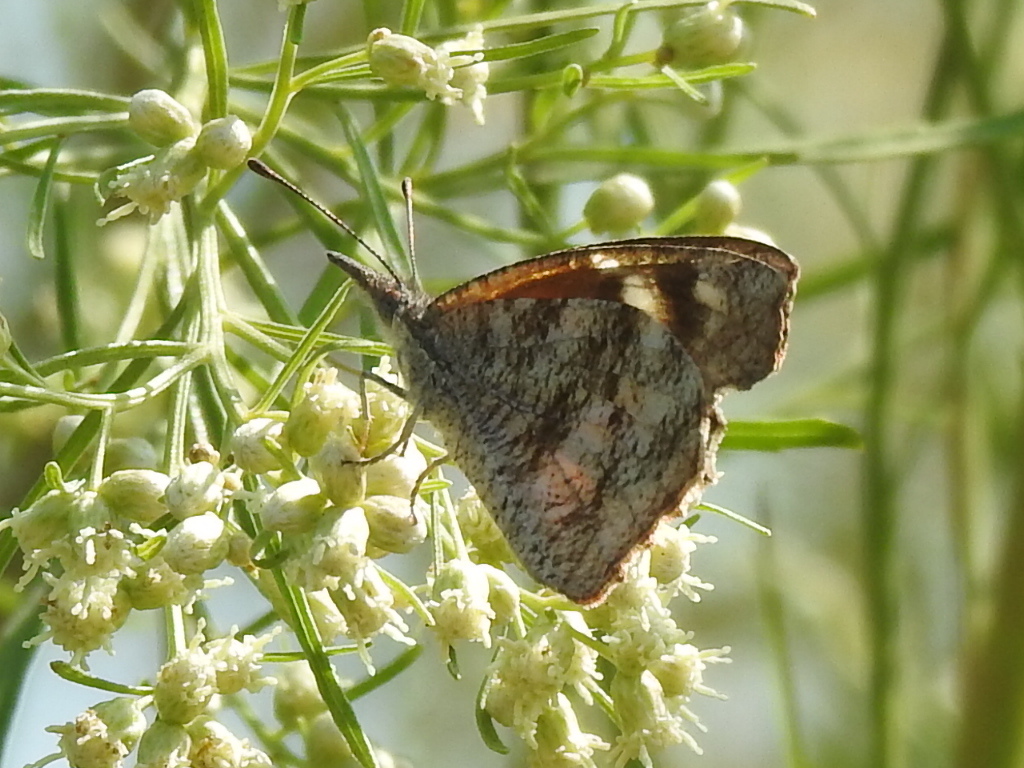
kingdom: Animalia
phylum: Arthropoda
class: Insecta
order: Lepidoptera
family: Nymphalidae
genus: Libytheana
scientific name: Libytheana carinenta
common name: American snout
